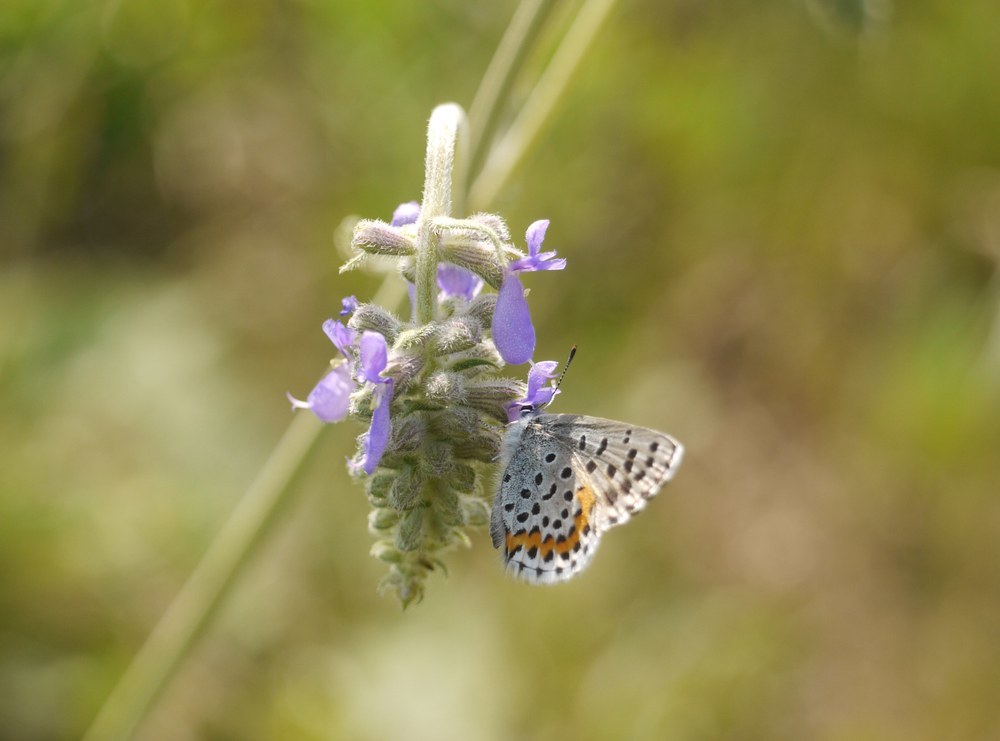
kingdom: Animalia
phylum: Arthropoda
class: Insecta
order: Lepidoptera
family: Lycaenidae
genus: Pseudophilotes
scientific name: Pseudophilotes bavius
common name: Bavius blue
